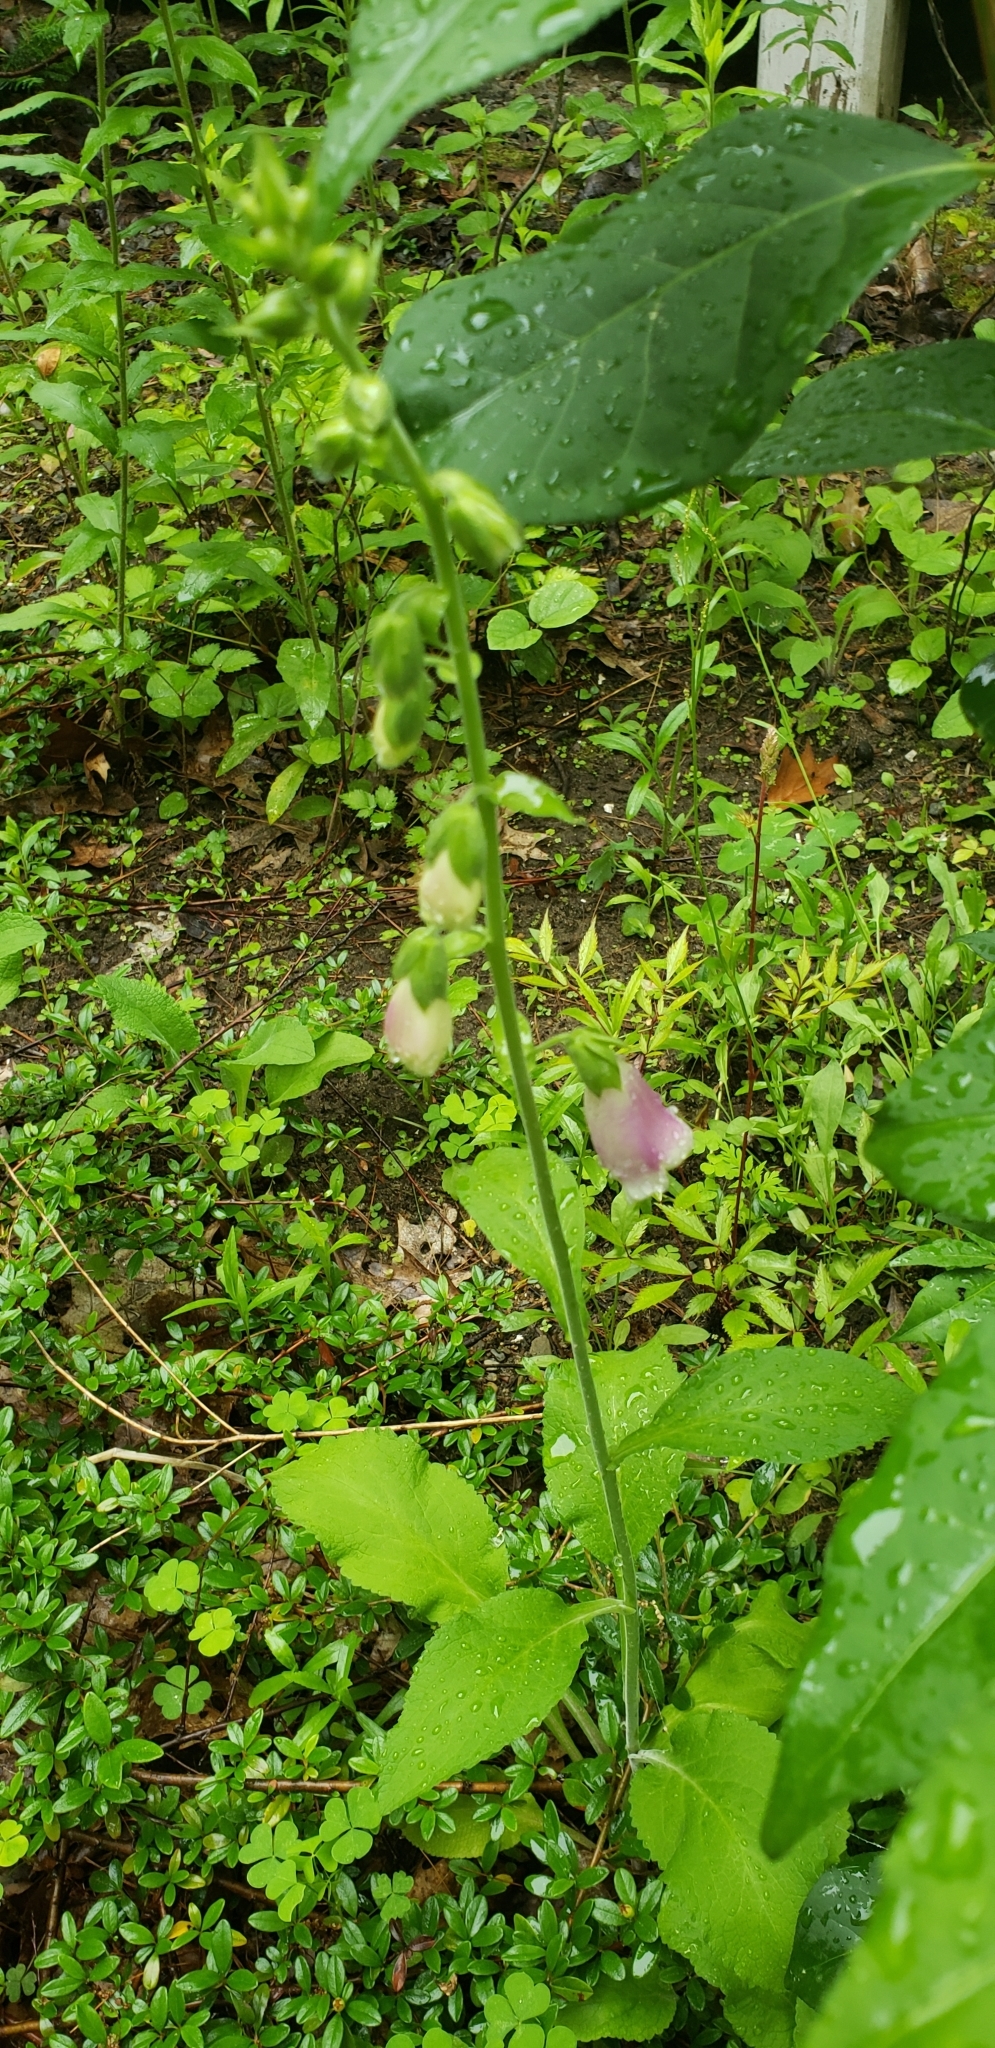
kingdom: Plantae
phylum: Tracheophyta
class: Magnoliopsida
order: Lamiales
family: Plantaginaceae
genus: Digitalis
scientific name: Digitalis purpurea
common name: Foxglove
